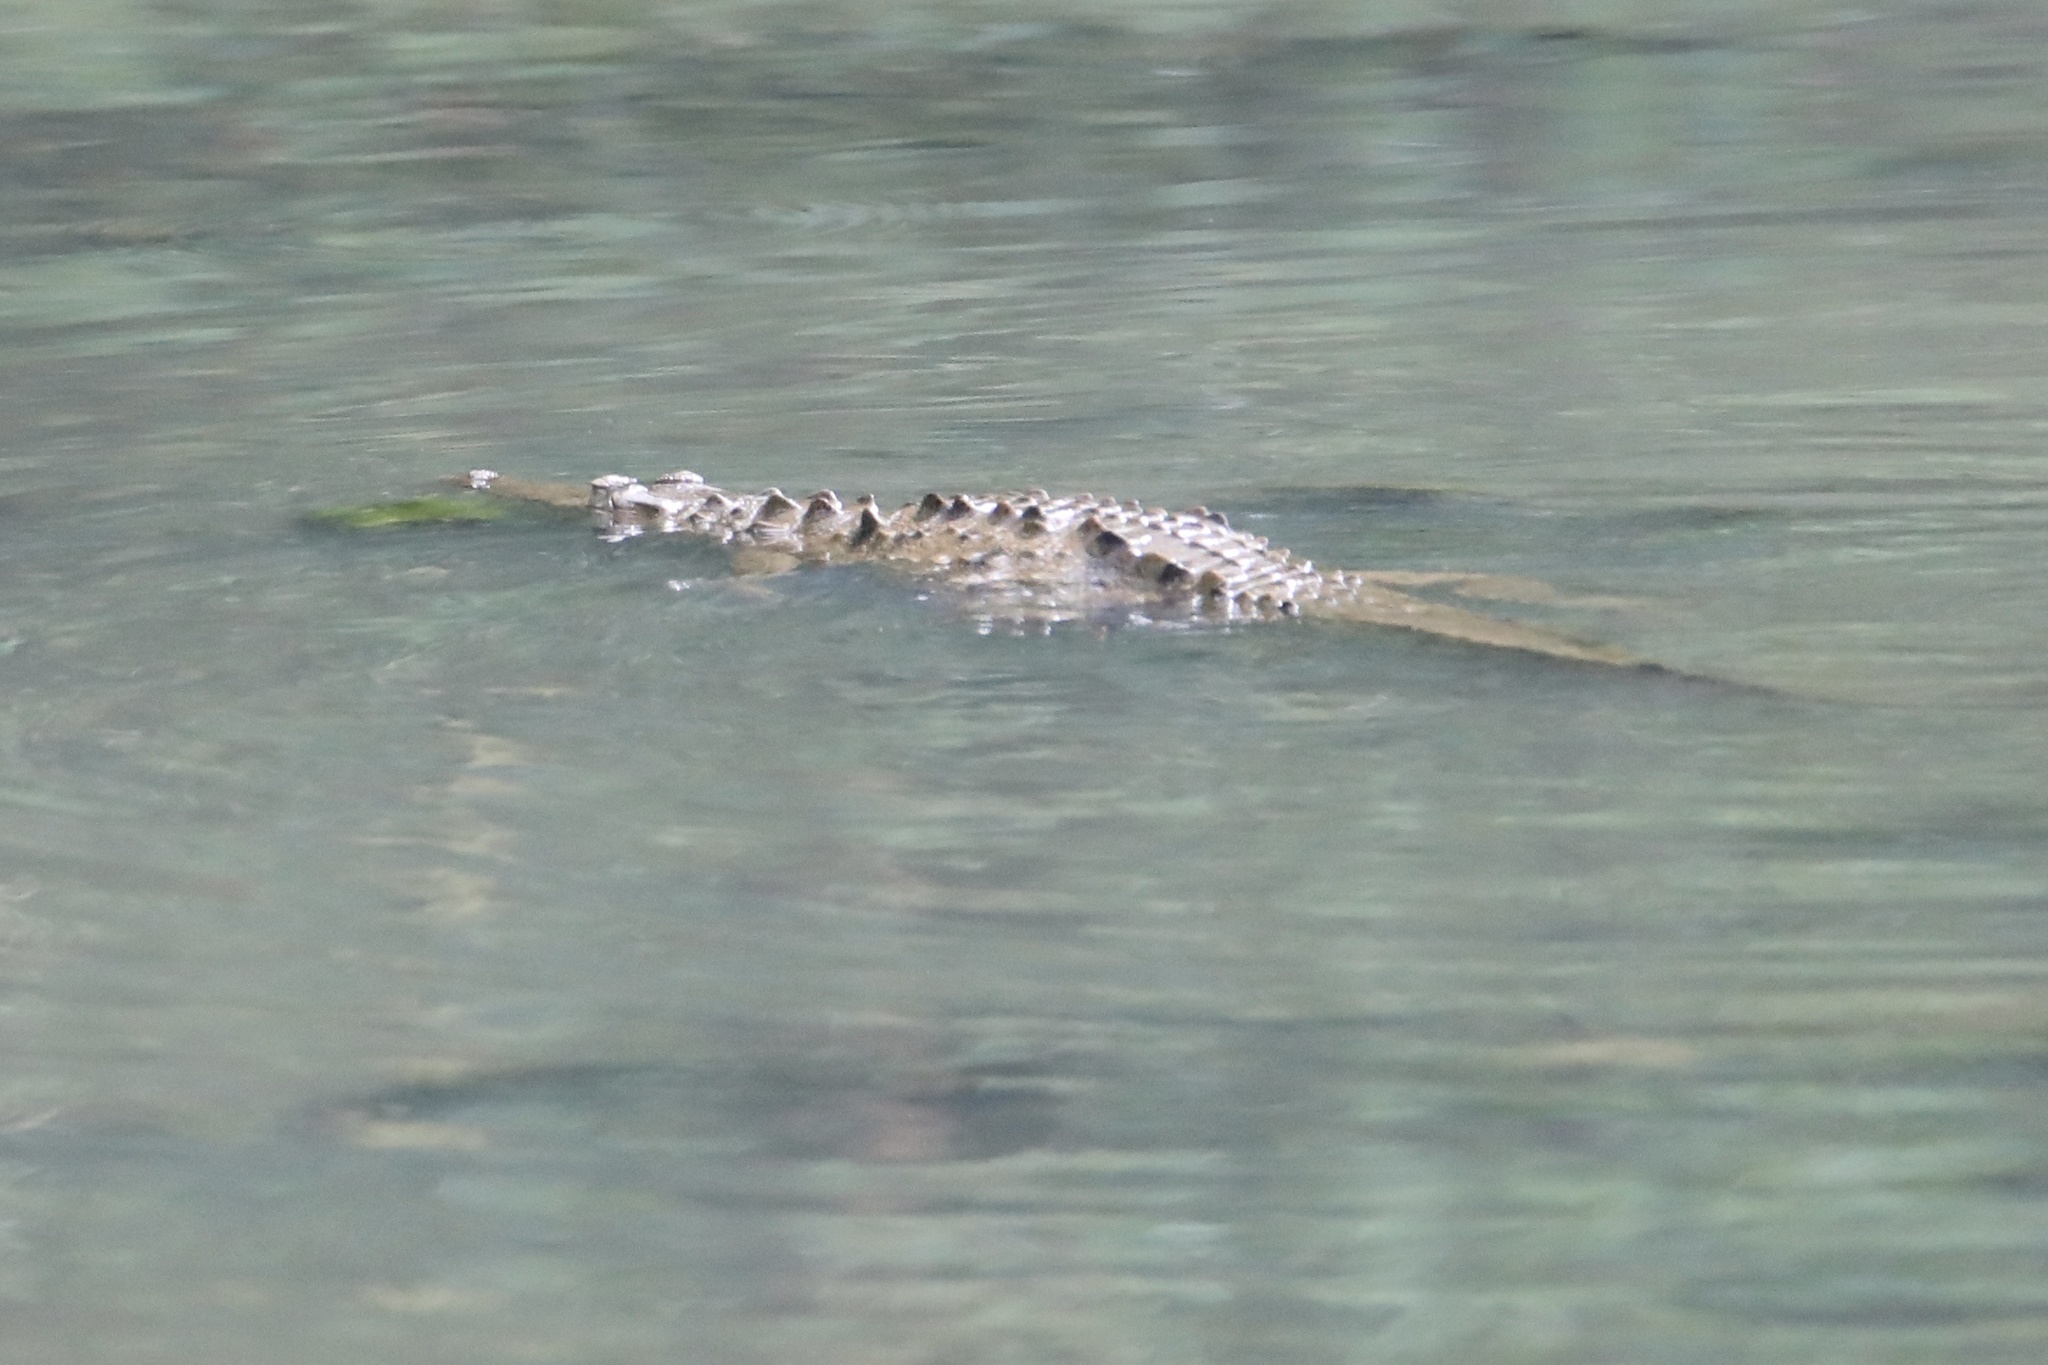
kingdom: Animalia
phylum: Chordata
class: Crocodylia
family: Crocodylidae
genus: Crocodylus
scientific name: Crocodylus acutus
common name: American crocodile
